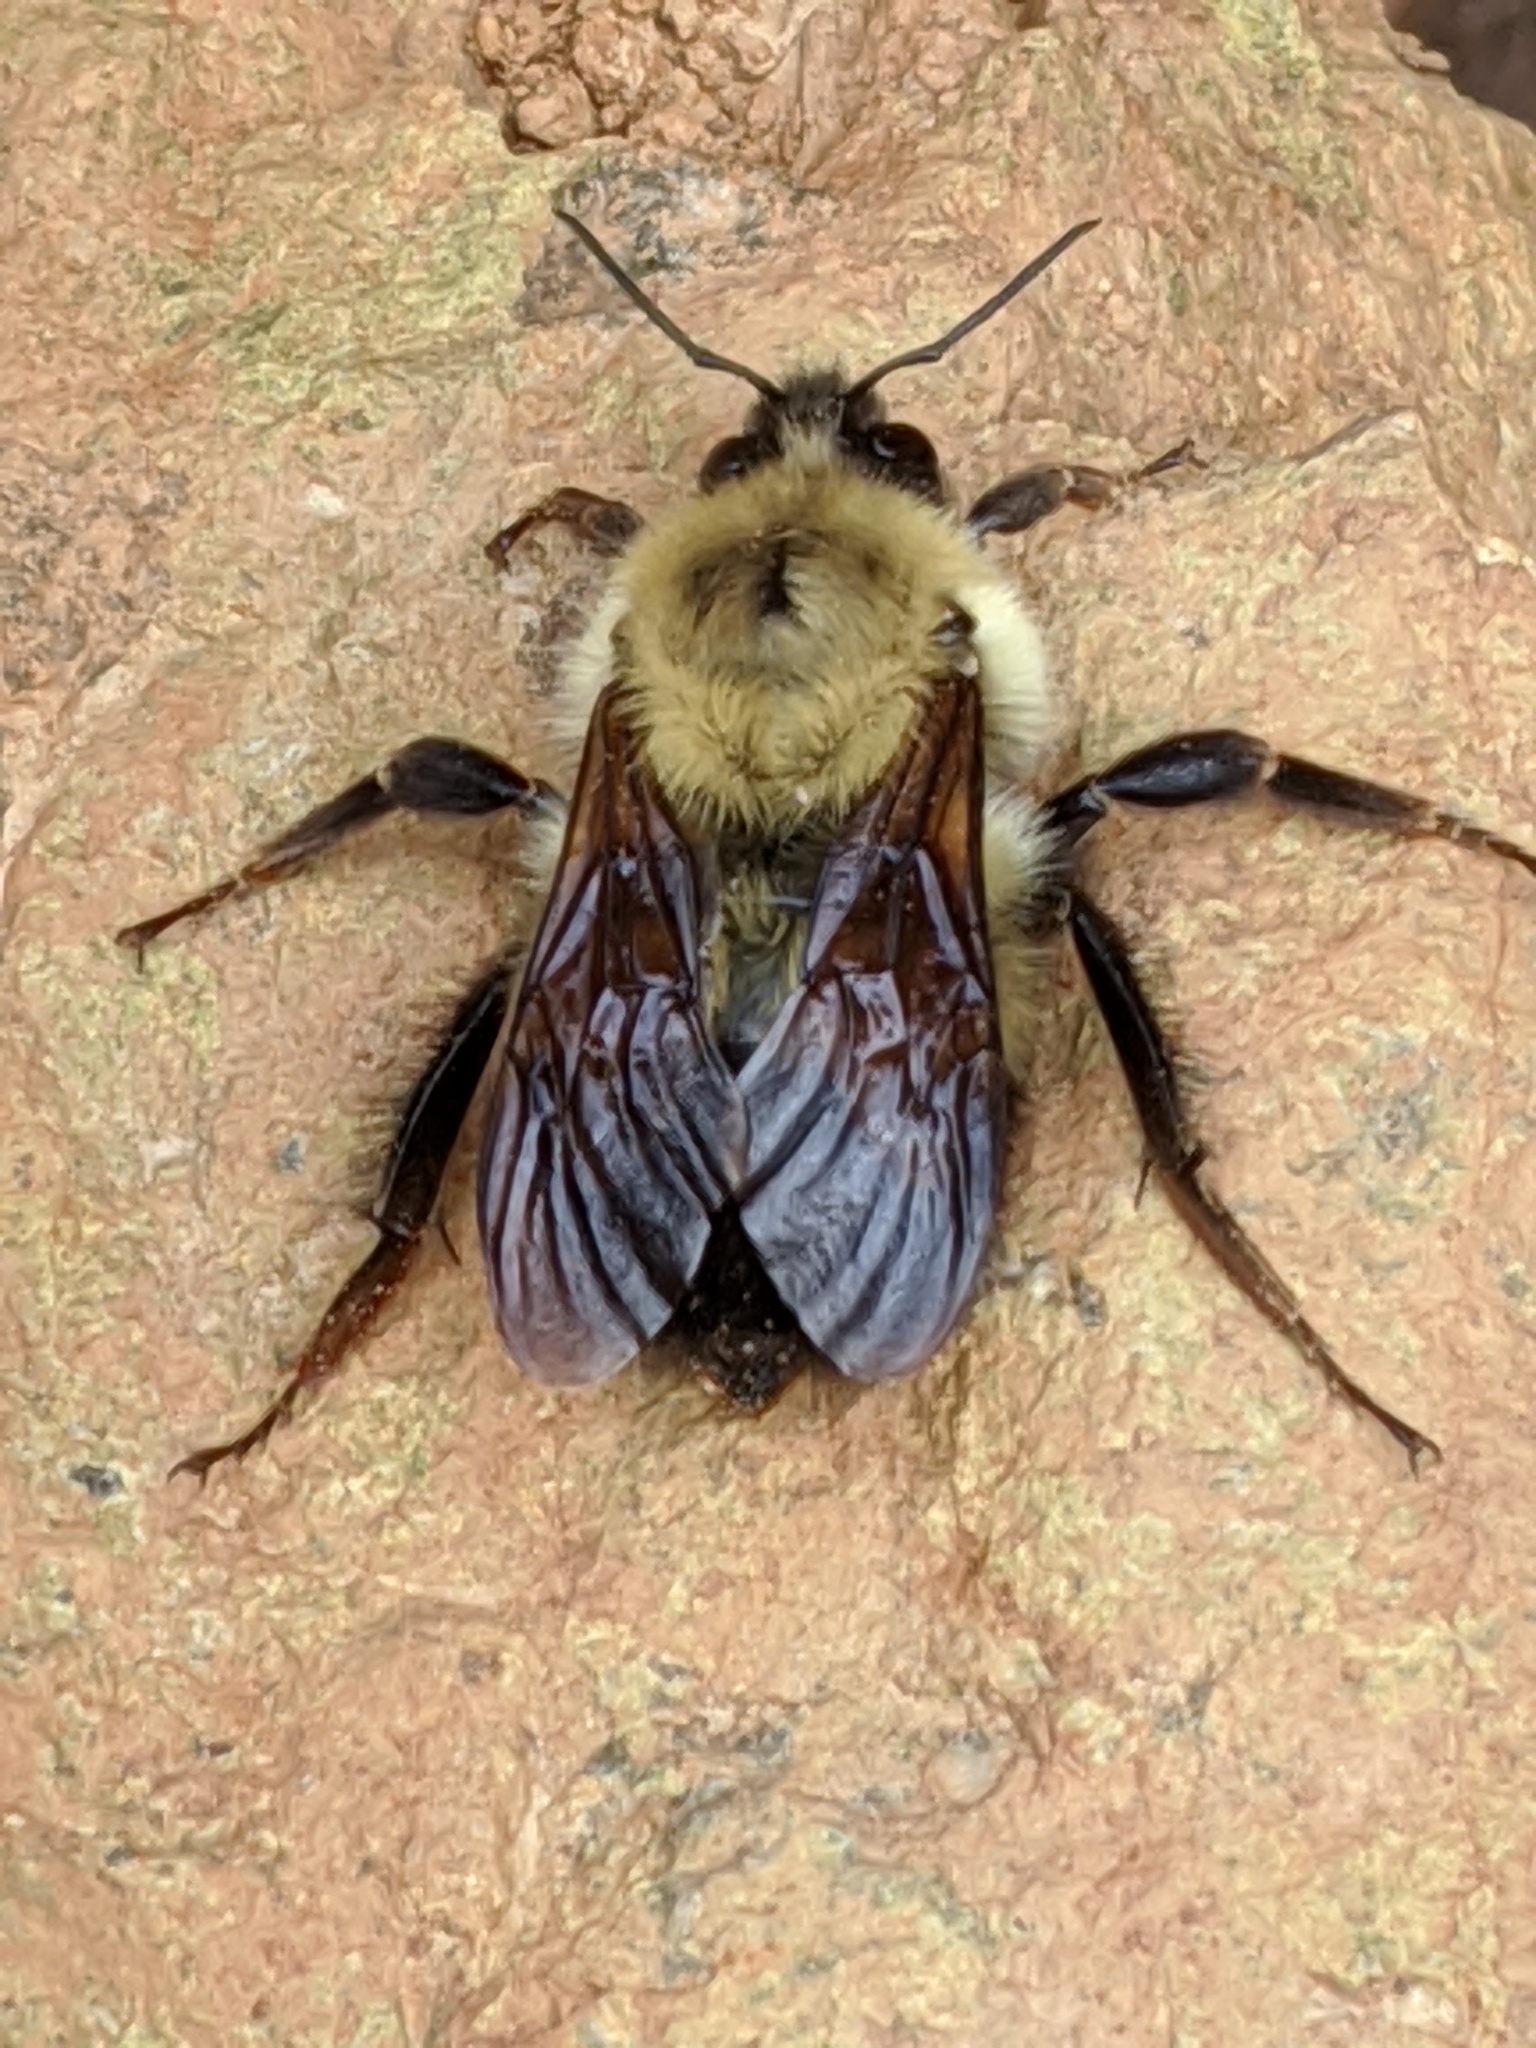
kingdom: Animalia
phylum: Arthropoda
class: Insecta
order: Hymenoptera
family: Apidae
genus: Pyrobombus
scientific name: Pyrobombus
